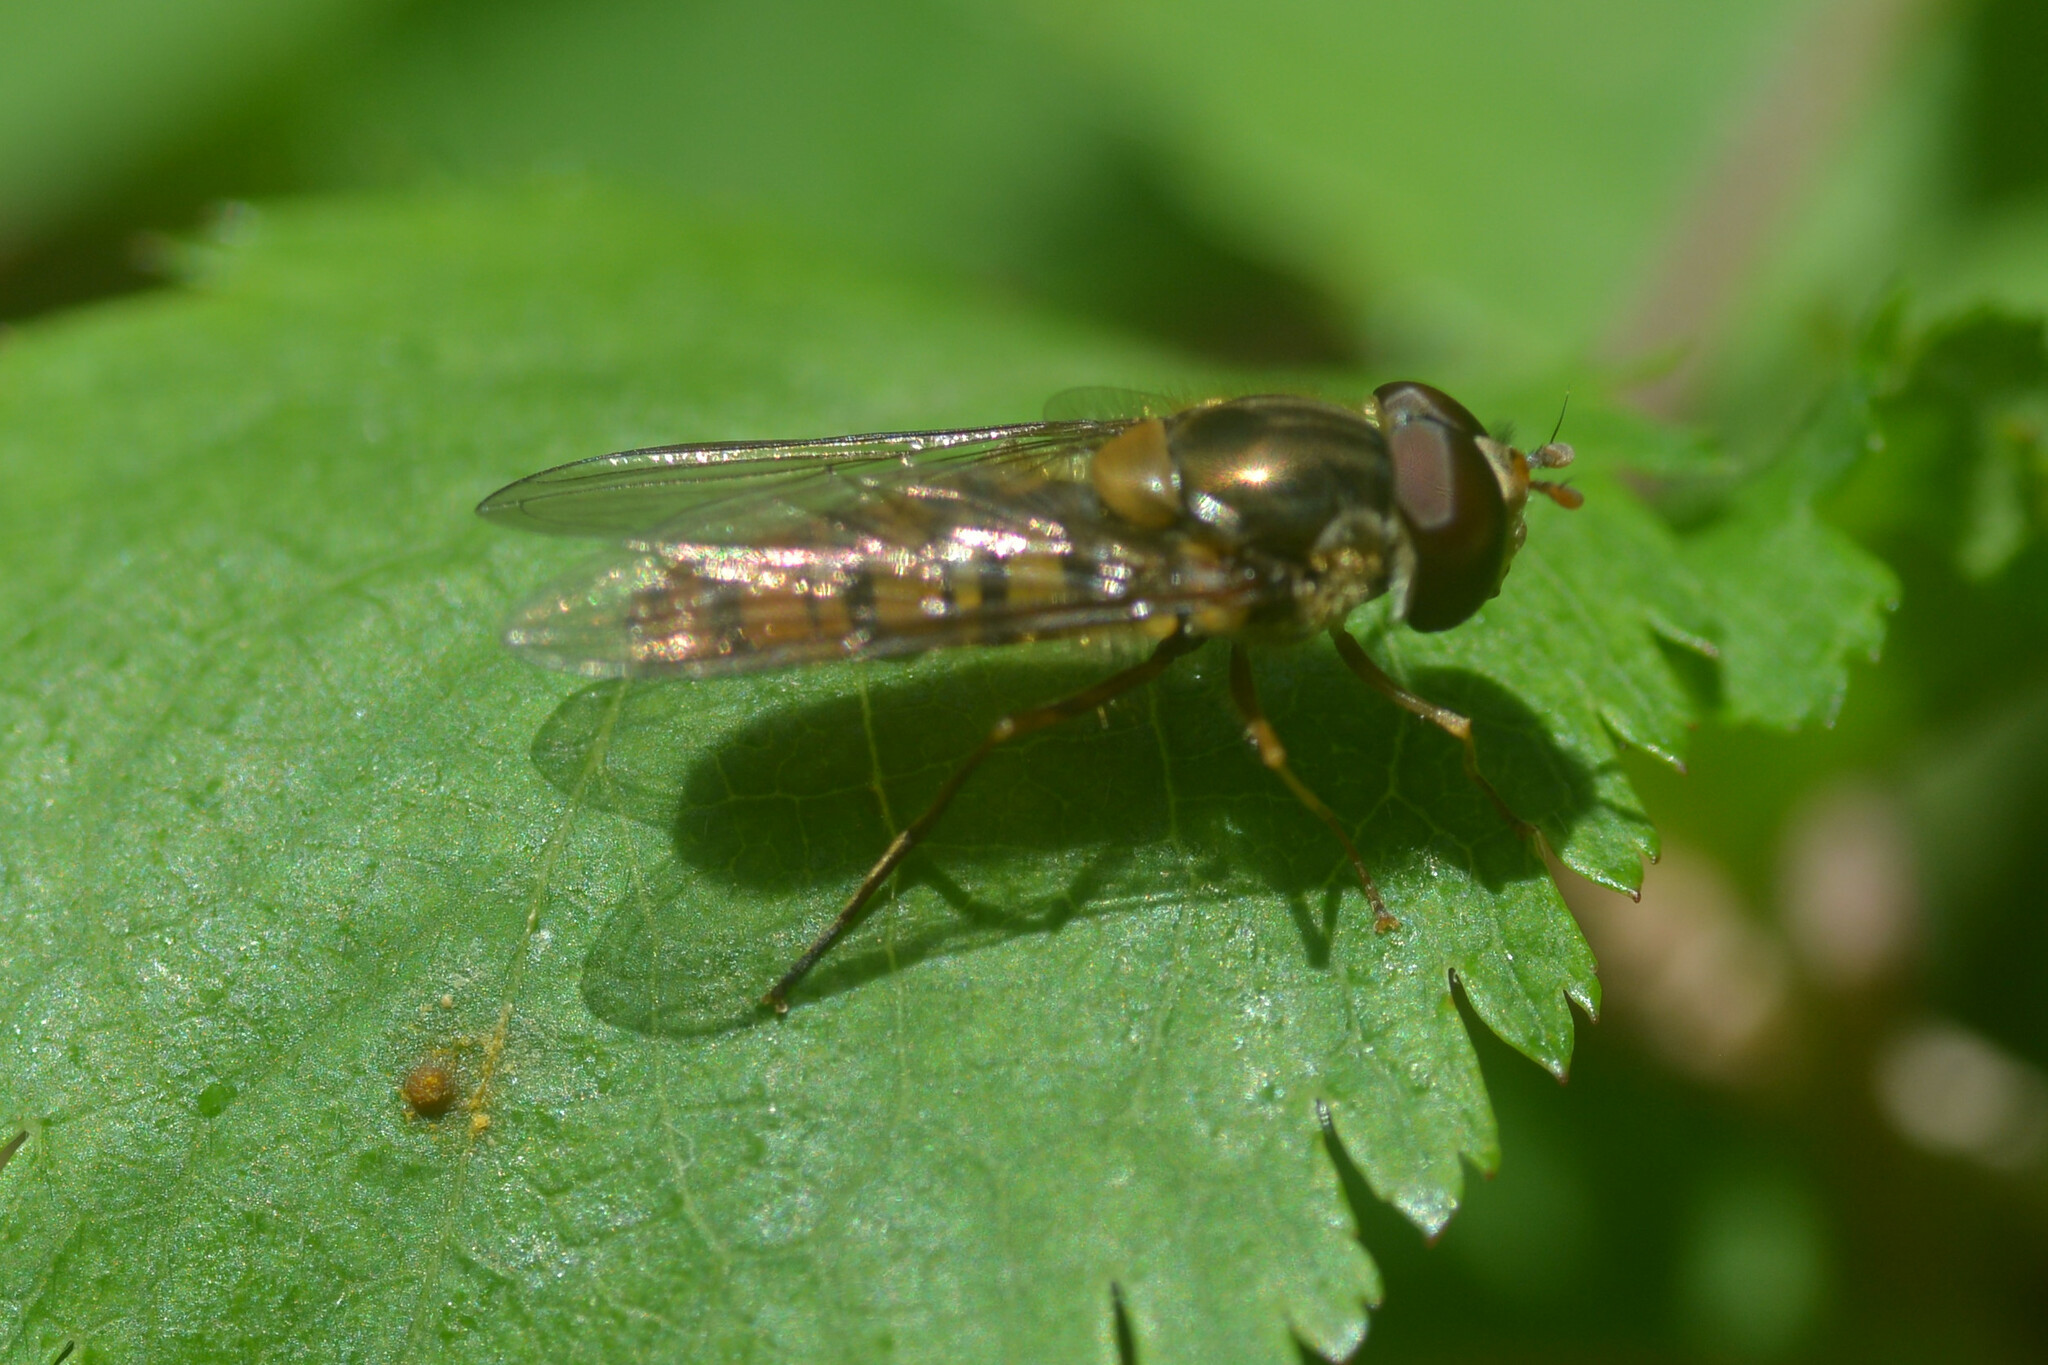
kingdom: Animalia
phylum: Arthropoda
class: Insecta
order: Diptera
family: Syrphidae
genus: Episyrphus
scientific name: Episyrphus balteatus
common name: Marmalade hoverfly
